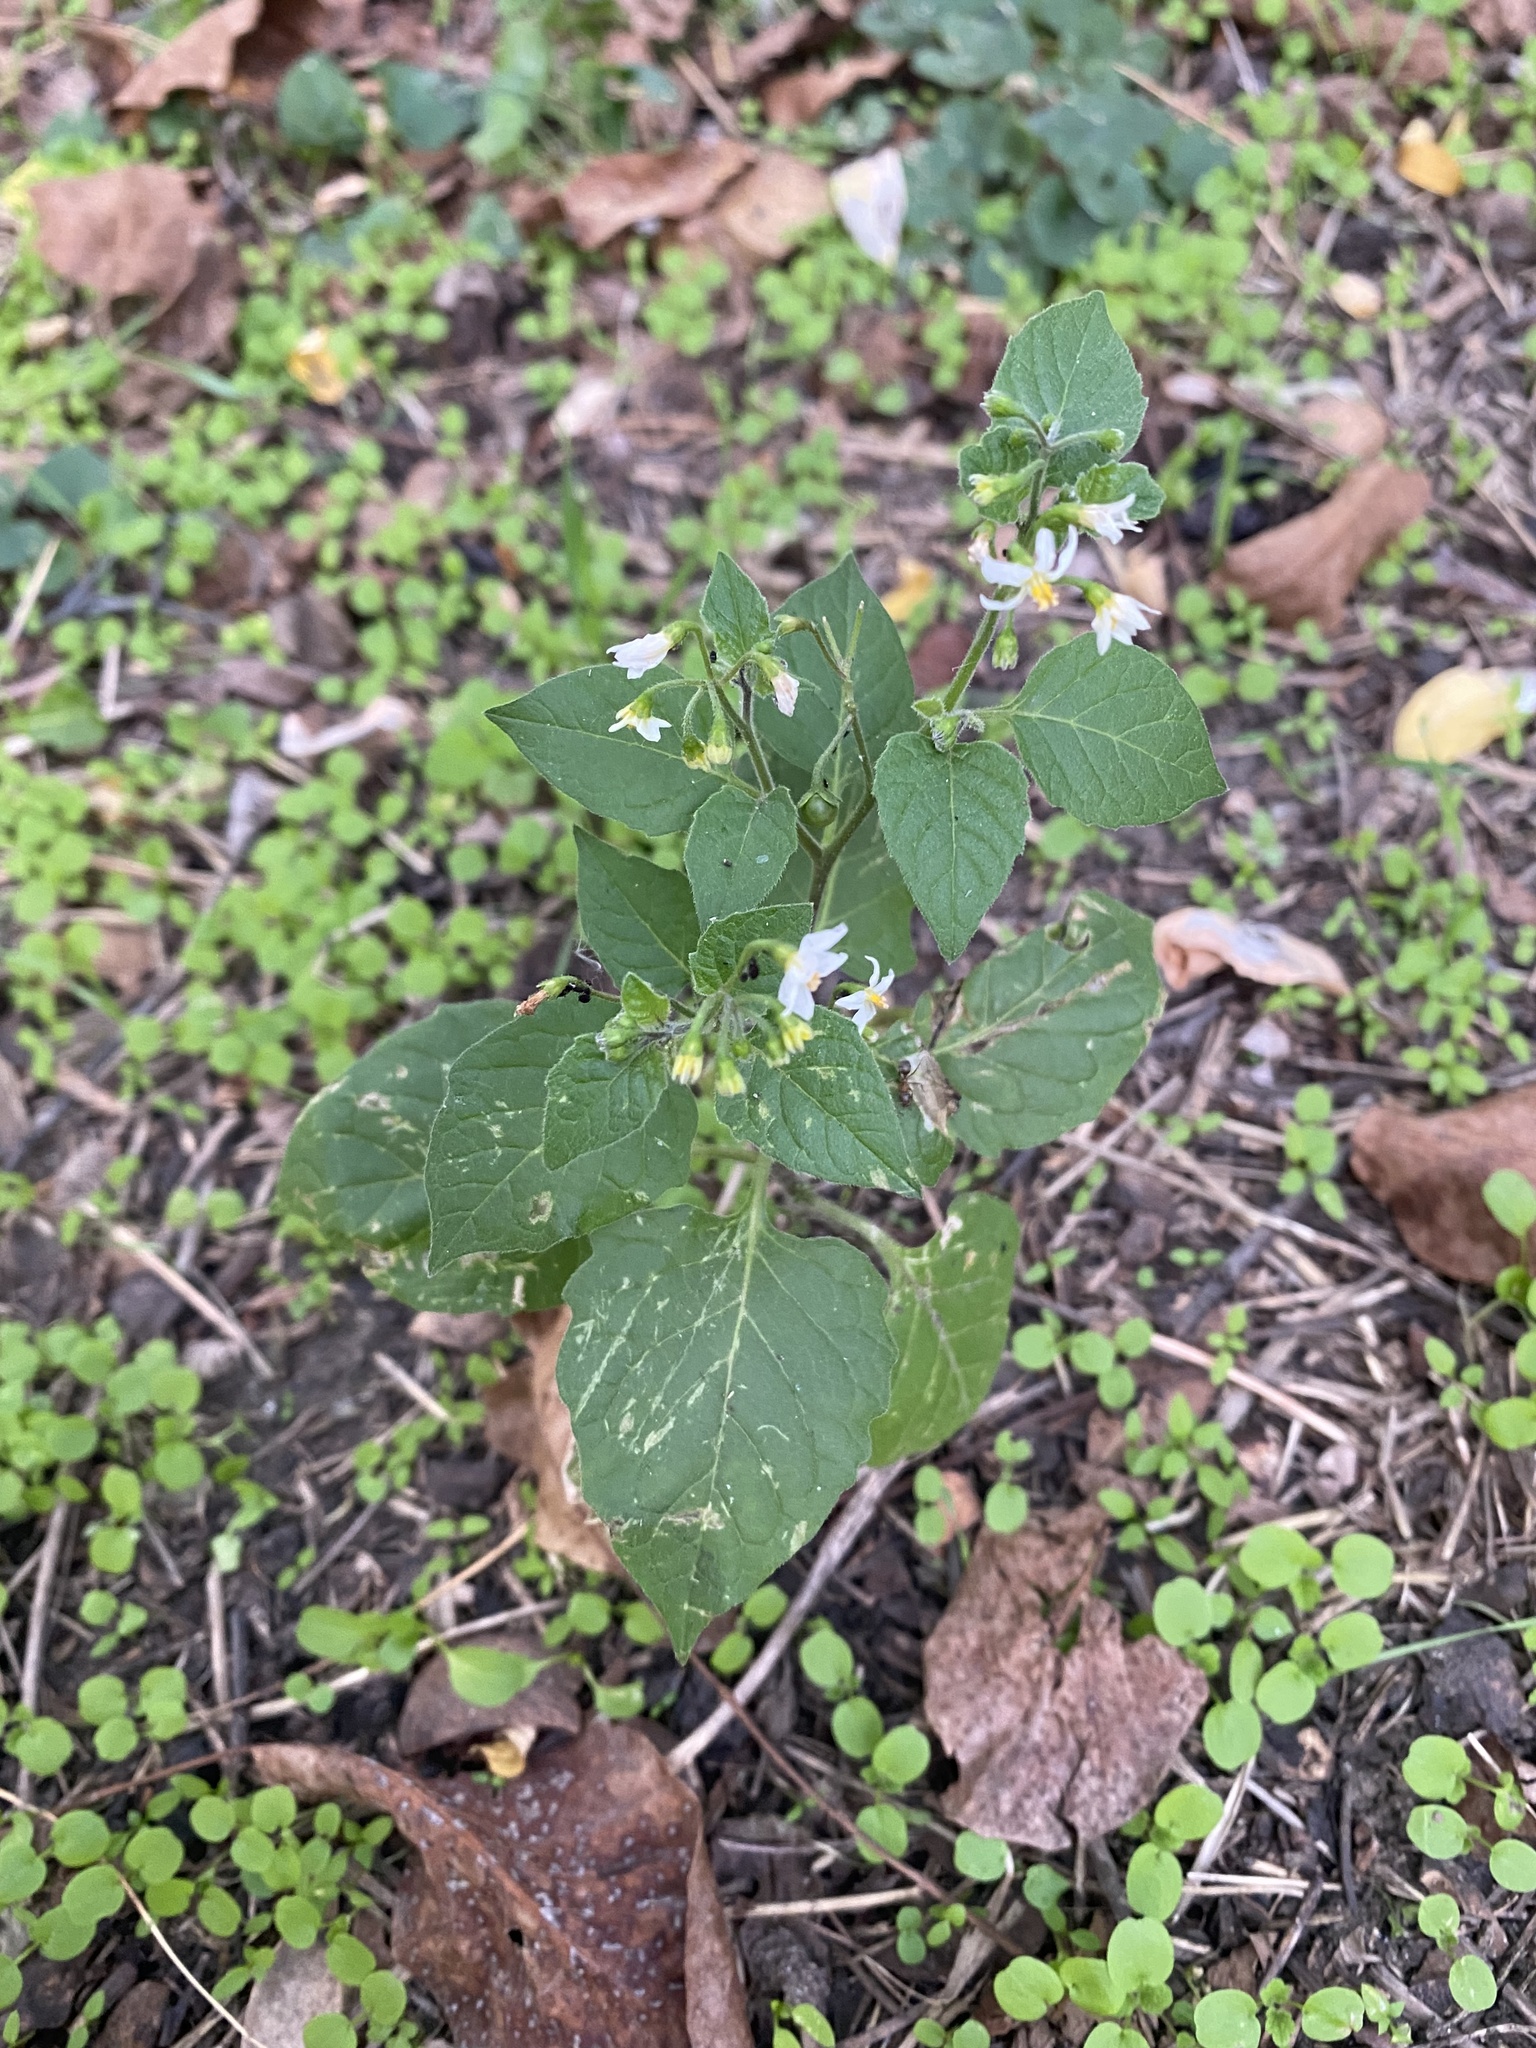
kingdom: Plantae
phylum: Tracheophyta
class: Magnoliopsida
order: Solanales
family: Solanaceae
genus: Solanum
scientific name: Solanum nigrum
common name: Black nightshade
